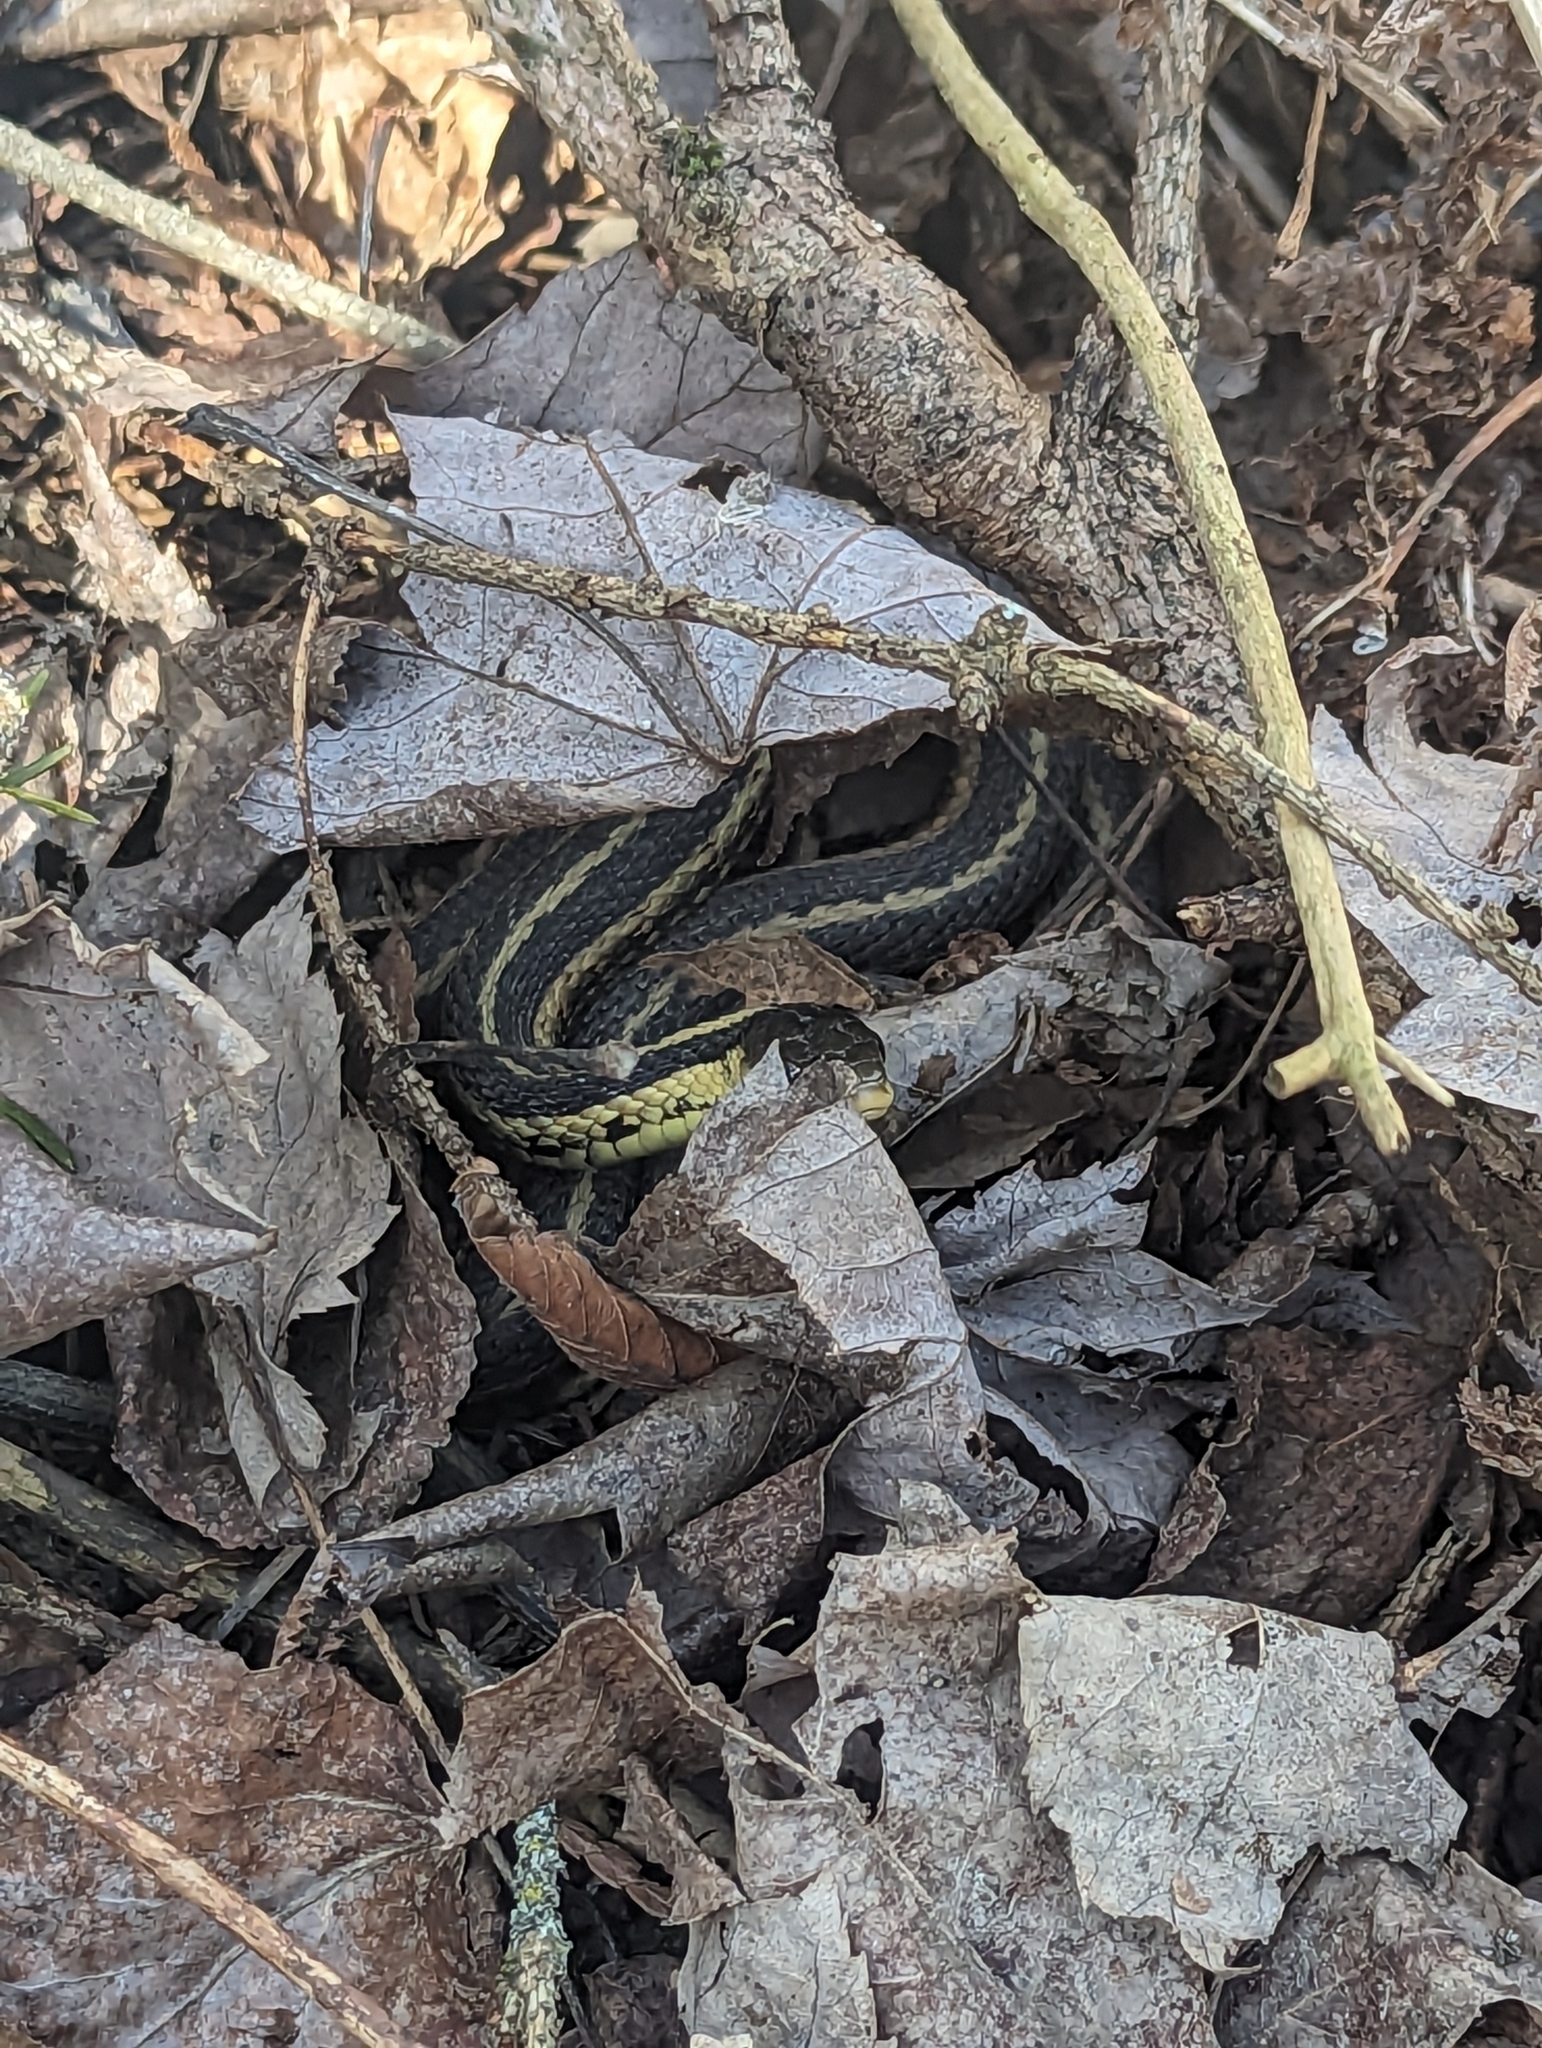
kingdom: Animalia
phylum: Chordata
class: Squamata
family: Colubridae
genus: Thamnophis
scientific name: Thamnophis sirtalis
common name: Common garter snake
